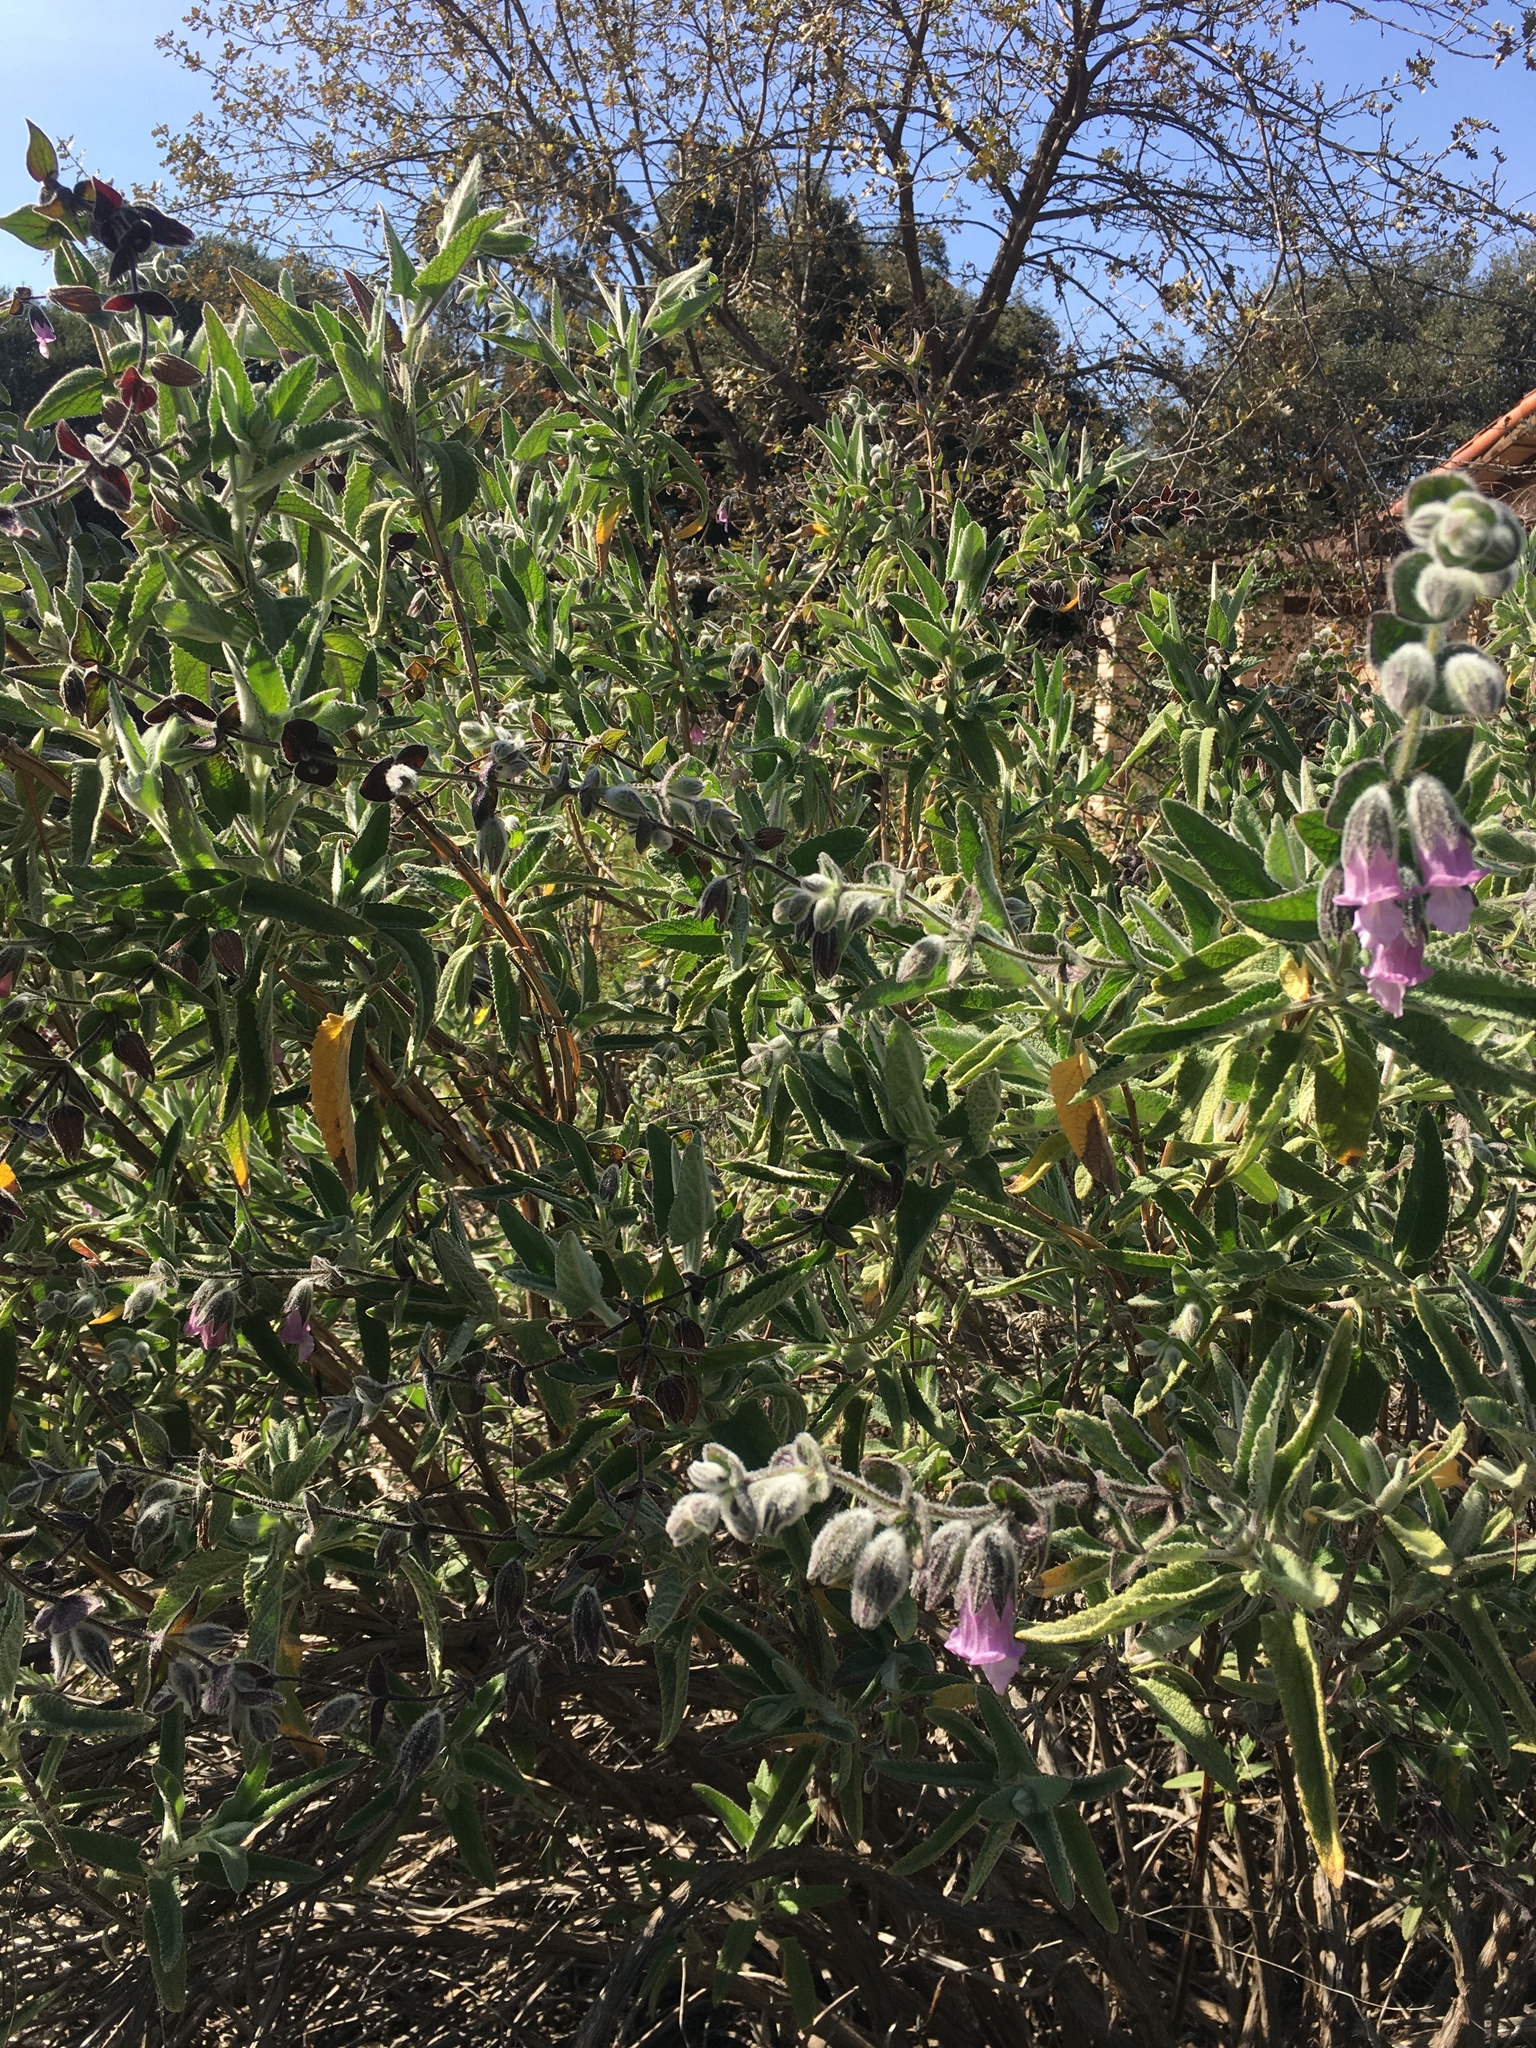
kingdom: Plantae
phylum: Tracheophyta
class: Magnoliopsida
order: Lamiales
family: Lamiaceae
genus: Lepechinia
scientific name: Lepechinia fragrans
